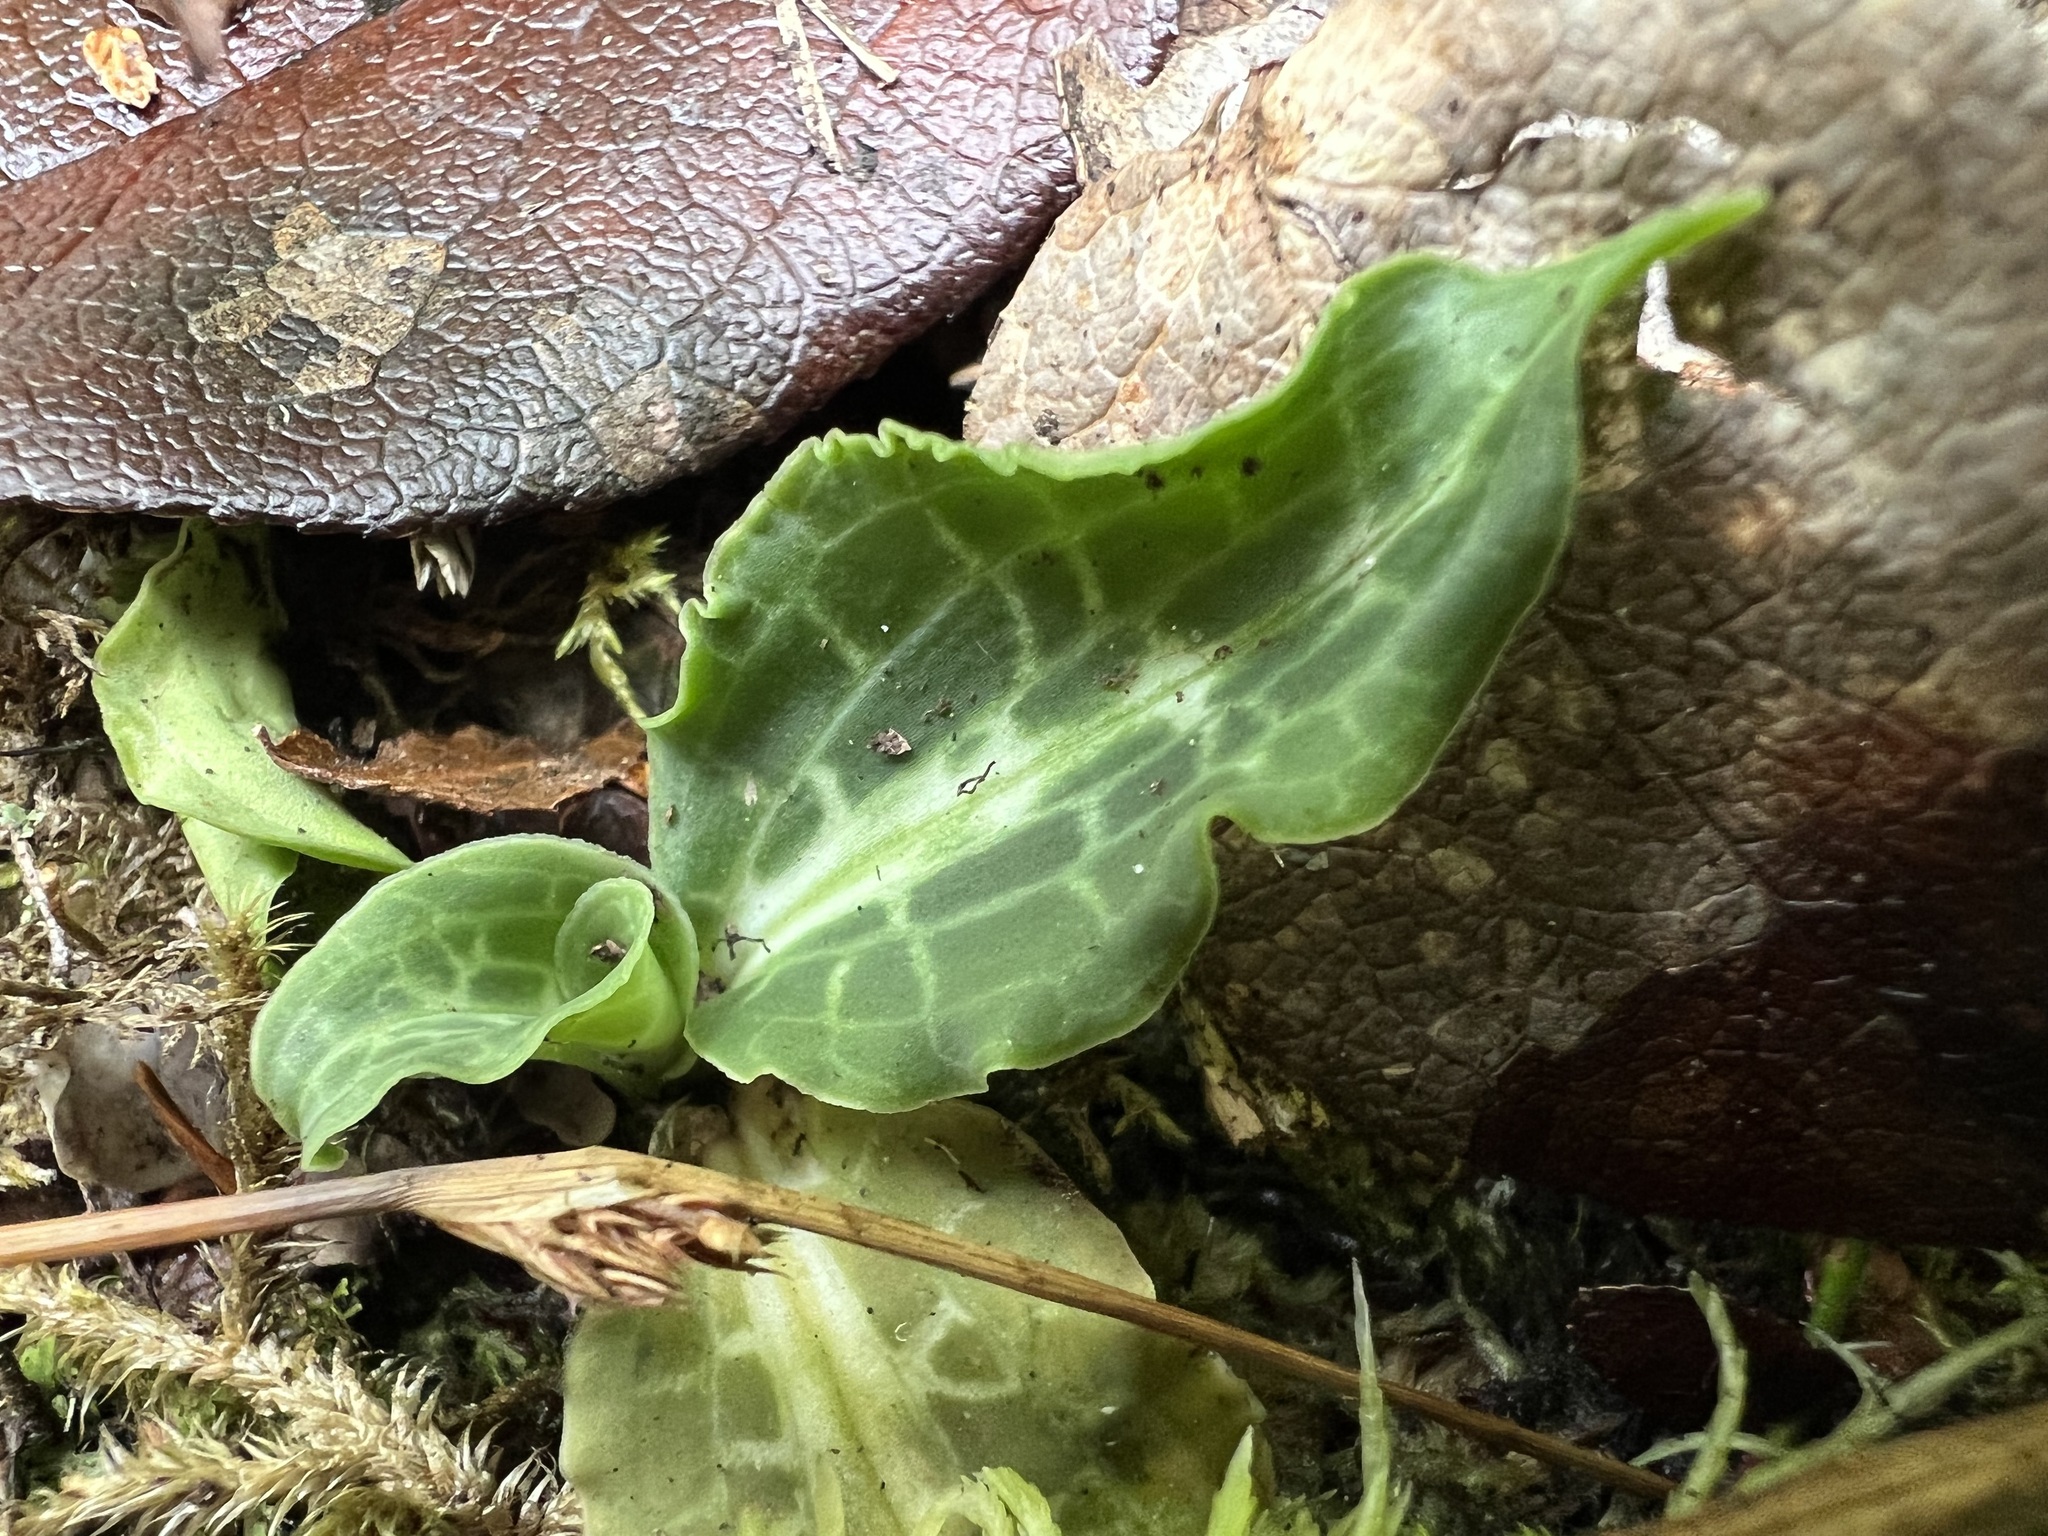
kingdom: Plantae
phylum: Tracheophyta
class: Liliopsida
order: Asparagales
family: Orchidaceae
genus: Goodyera
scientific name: Goodyera oblongifolia
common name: Giant rattlesnake-plantain
